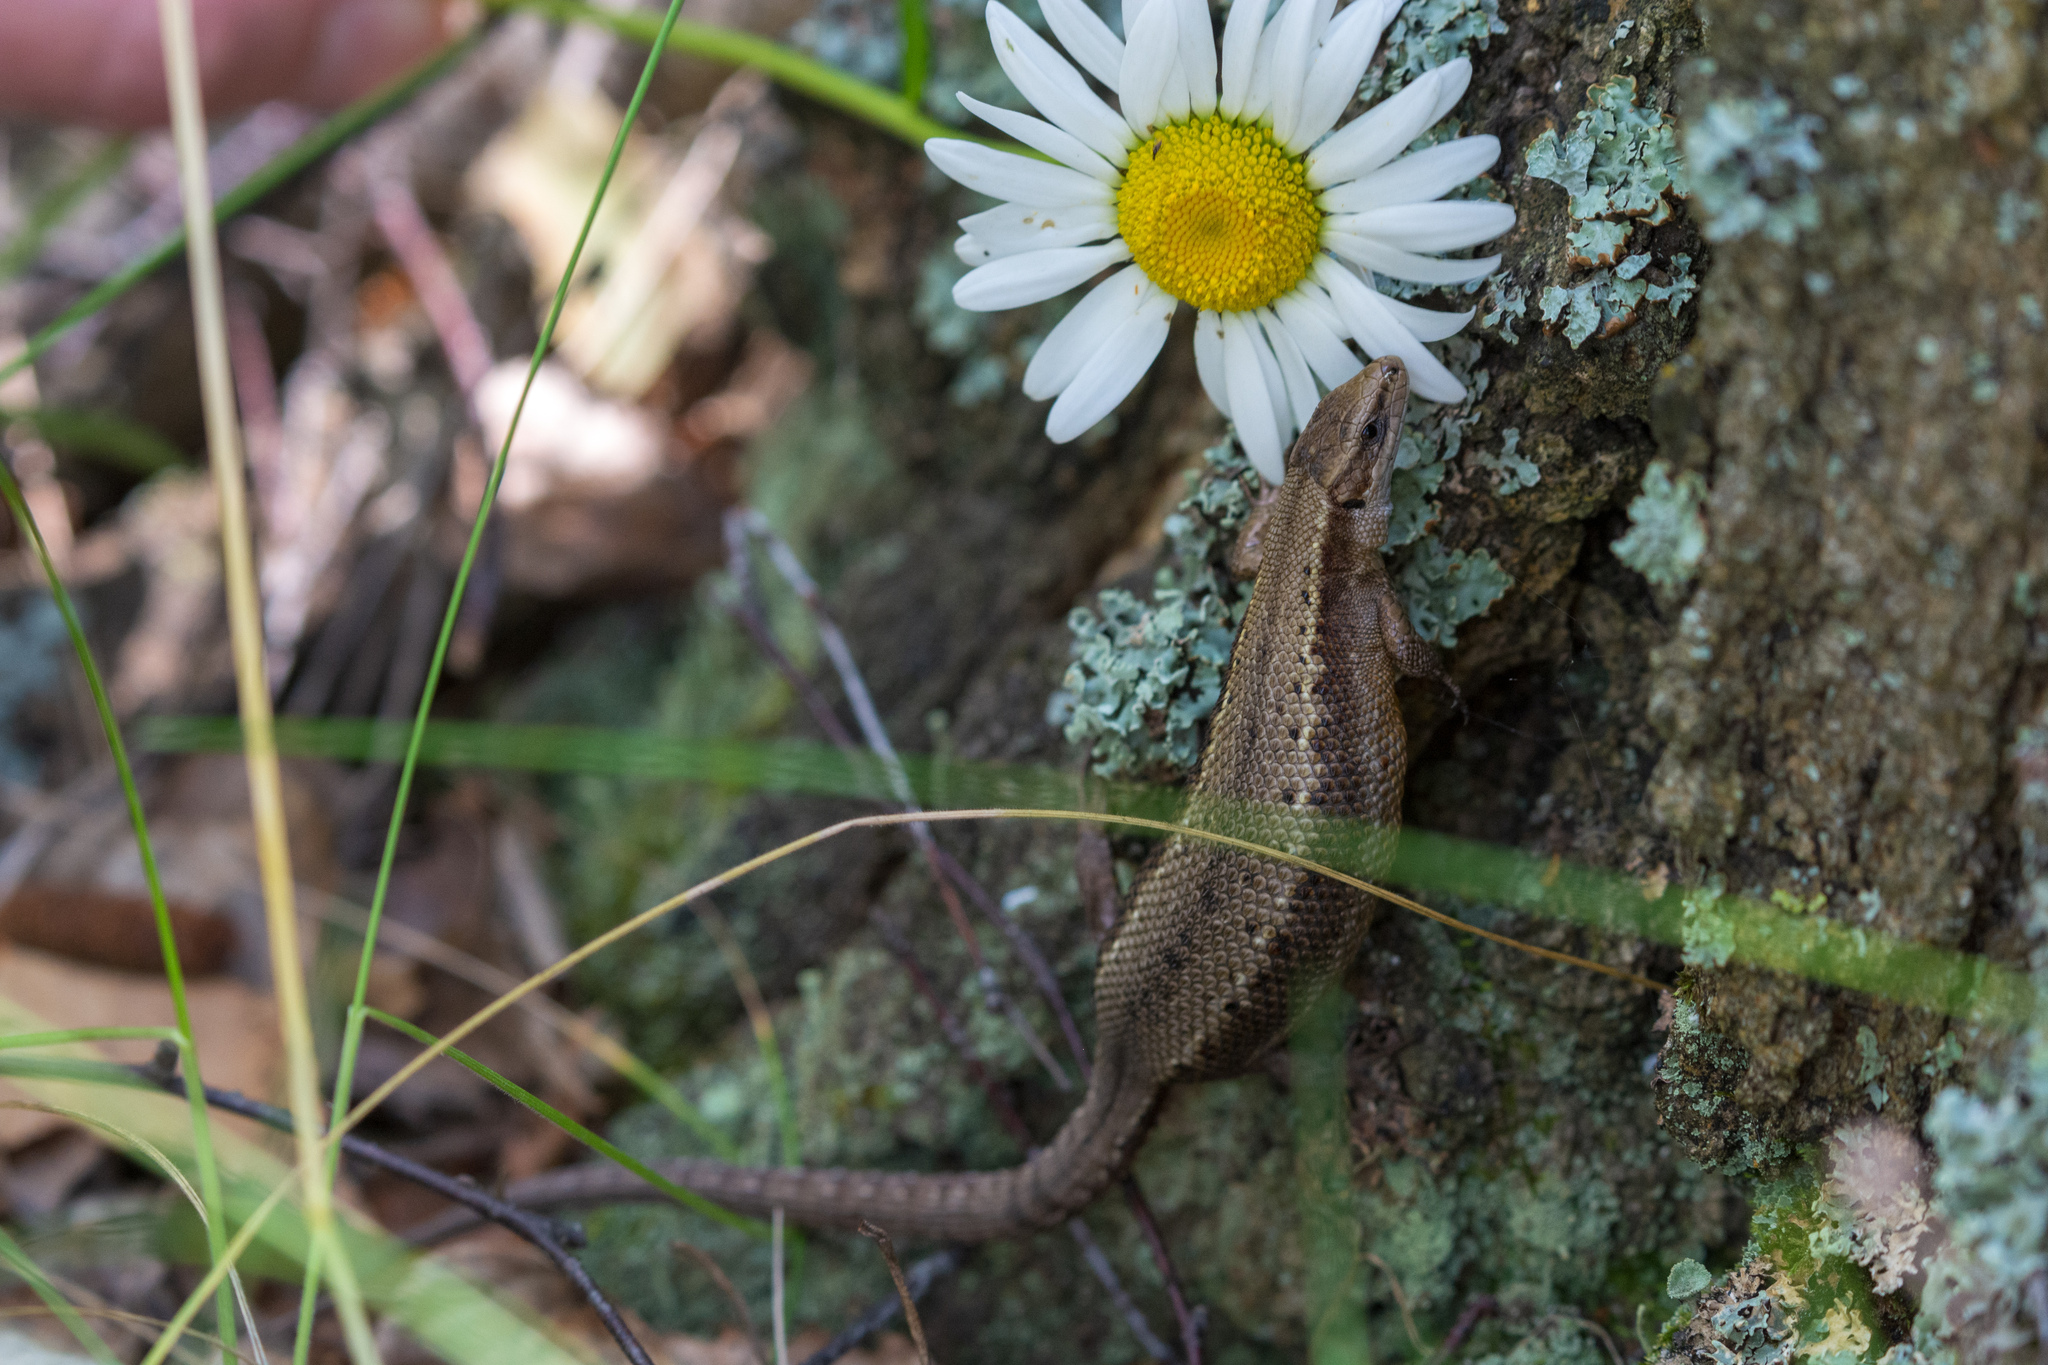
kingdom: Animalia
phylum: Chordata
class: Squamata
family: Lacertidae
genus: Zootoca
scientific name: Zootoca vivipara
